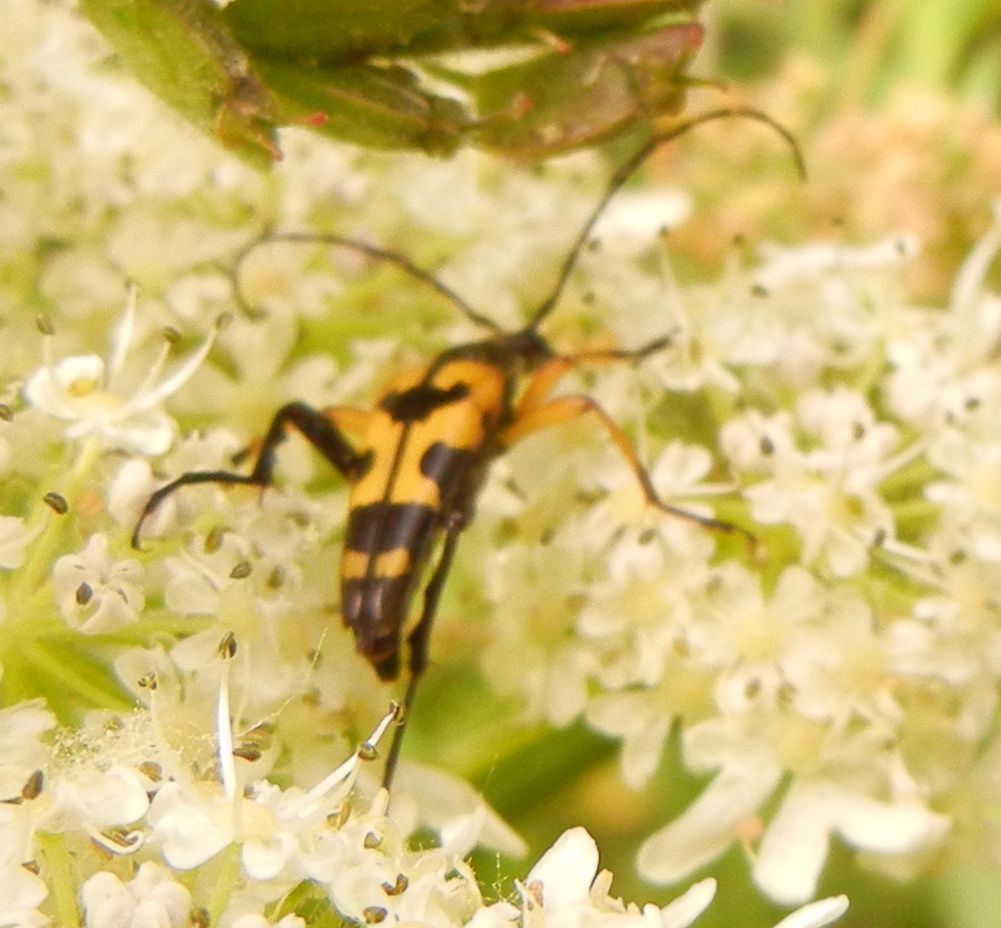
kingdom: Animalia
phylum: Arthropoda
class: Insecta
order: Coleoptera
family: Cerambycidae
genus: Rutpela
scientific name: Rutpela maculata
